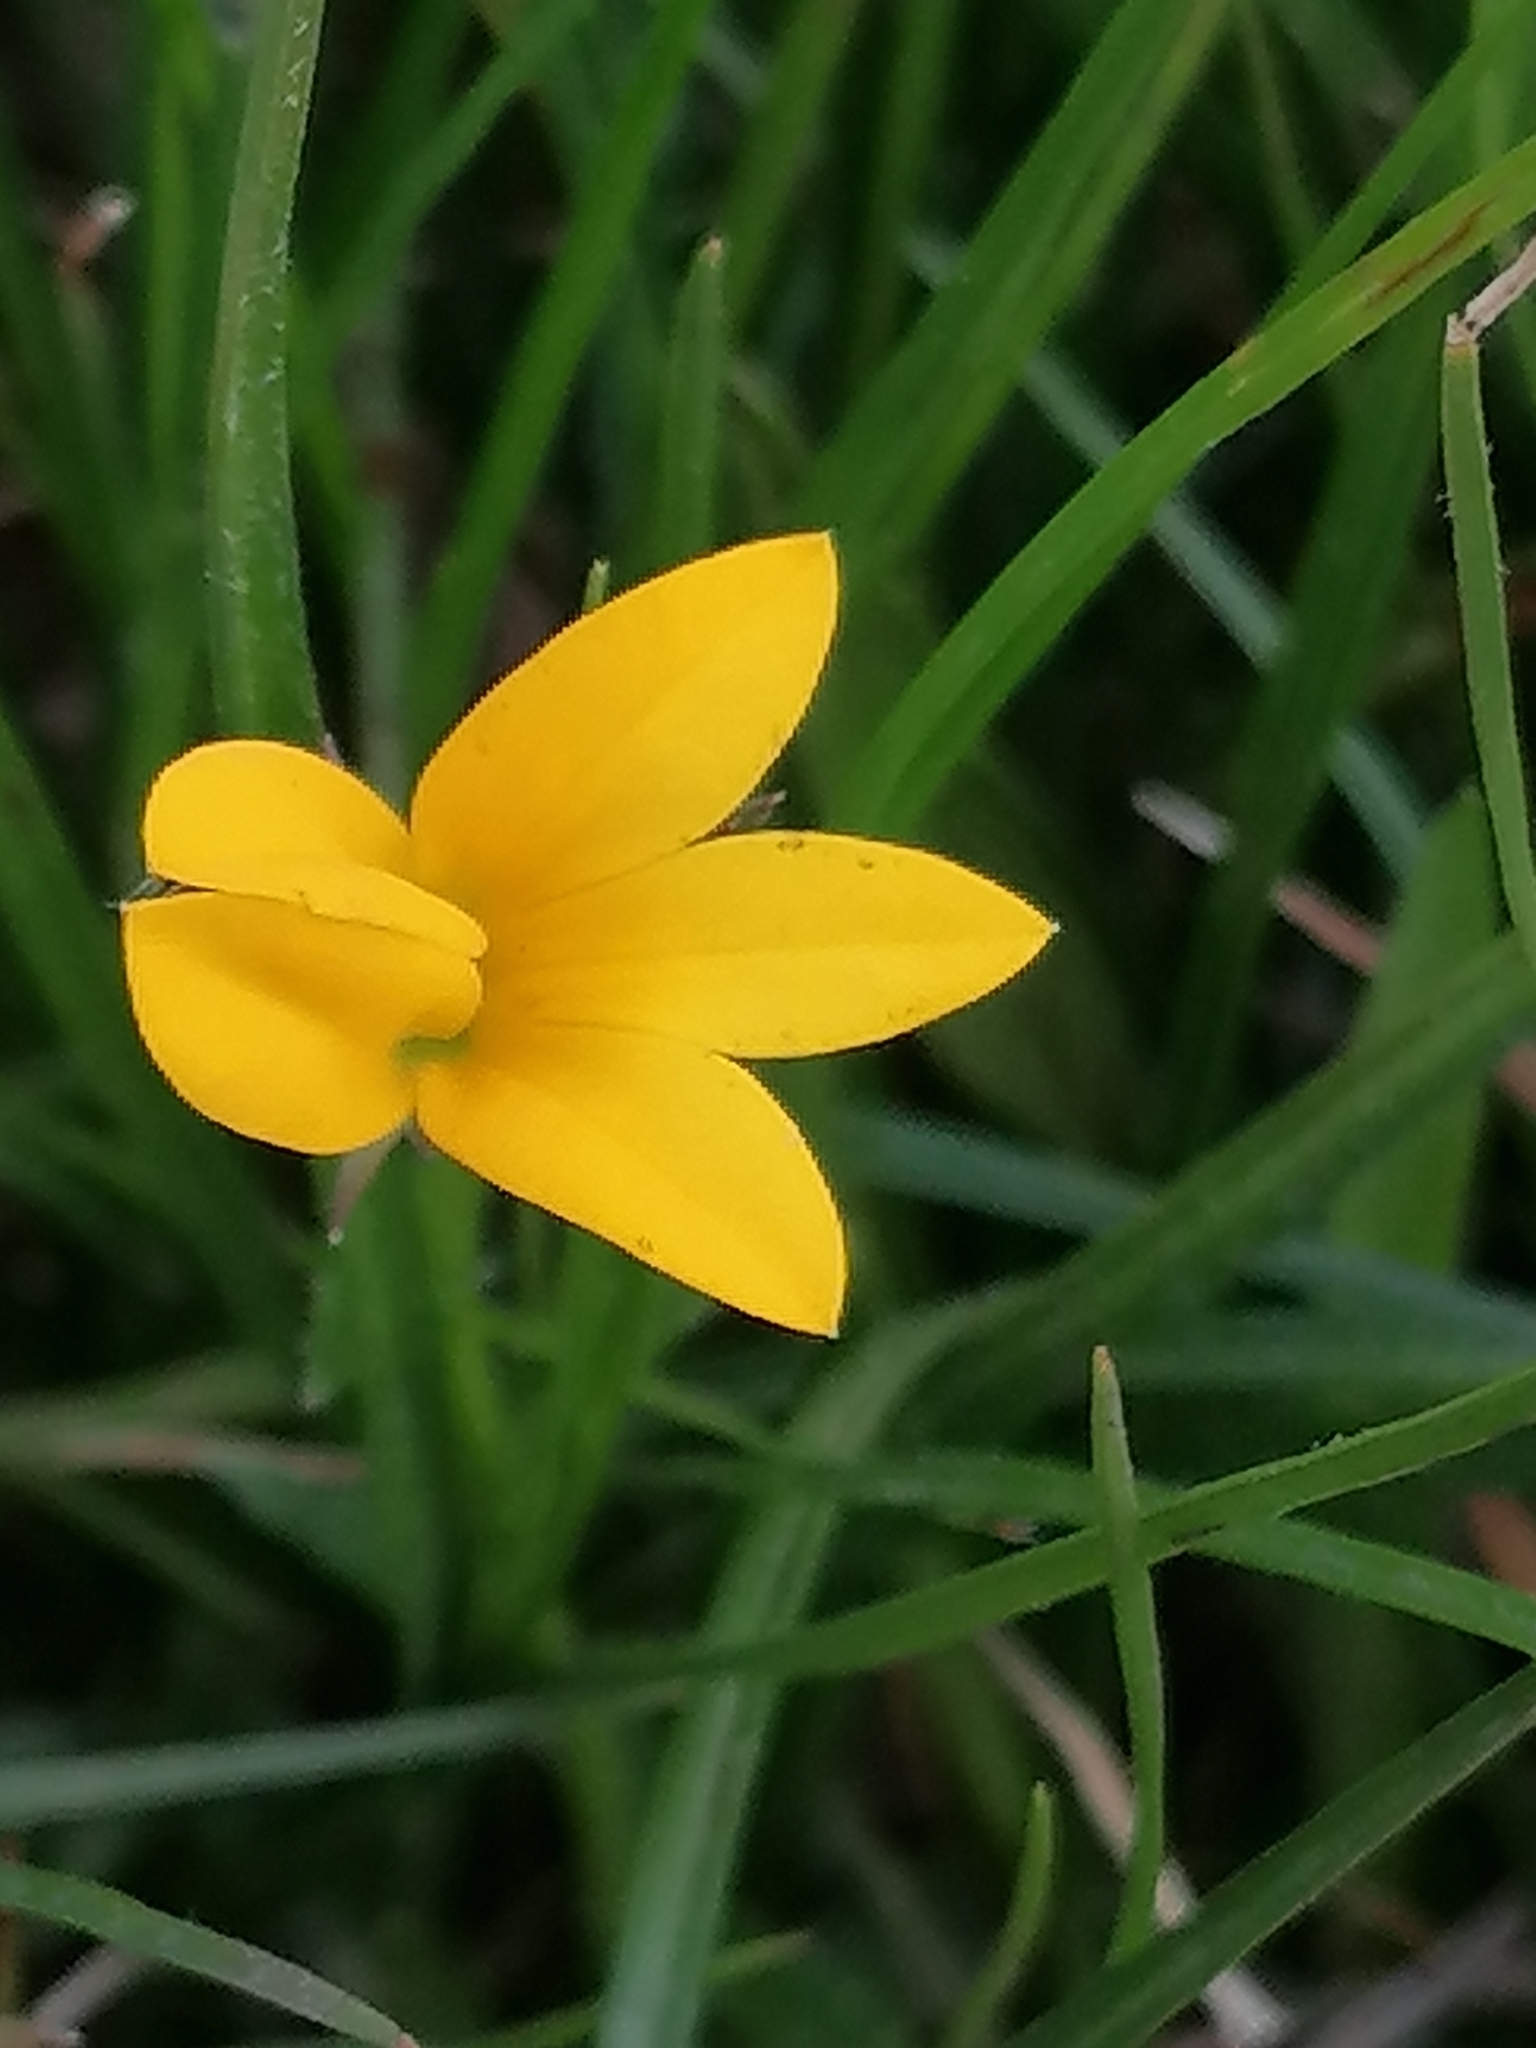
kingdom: Plantae
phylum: Tracheophyta
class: Magnoliopsida
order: Asterales
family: Campanulaceae
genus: Monopsis
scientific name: Monopsis lutea
